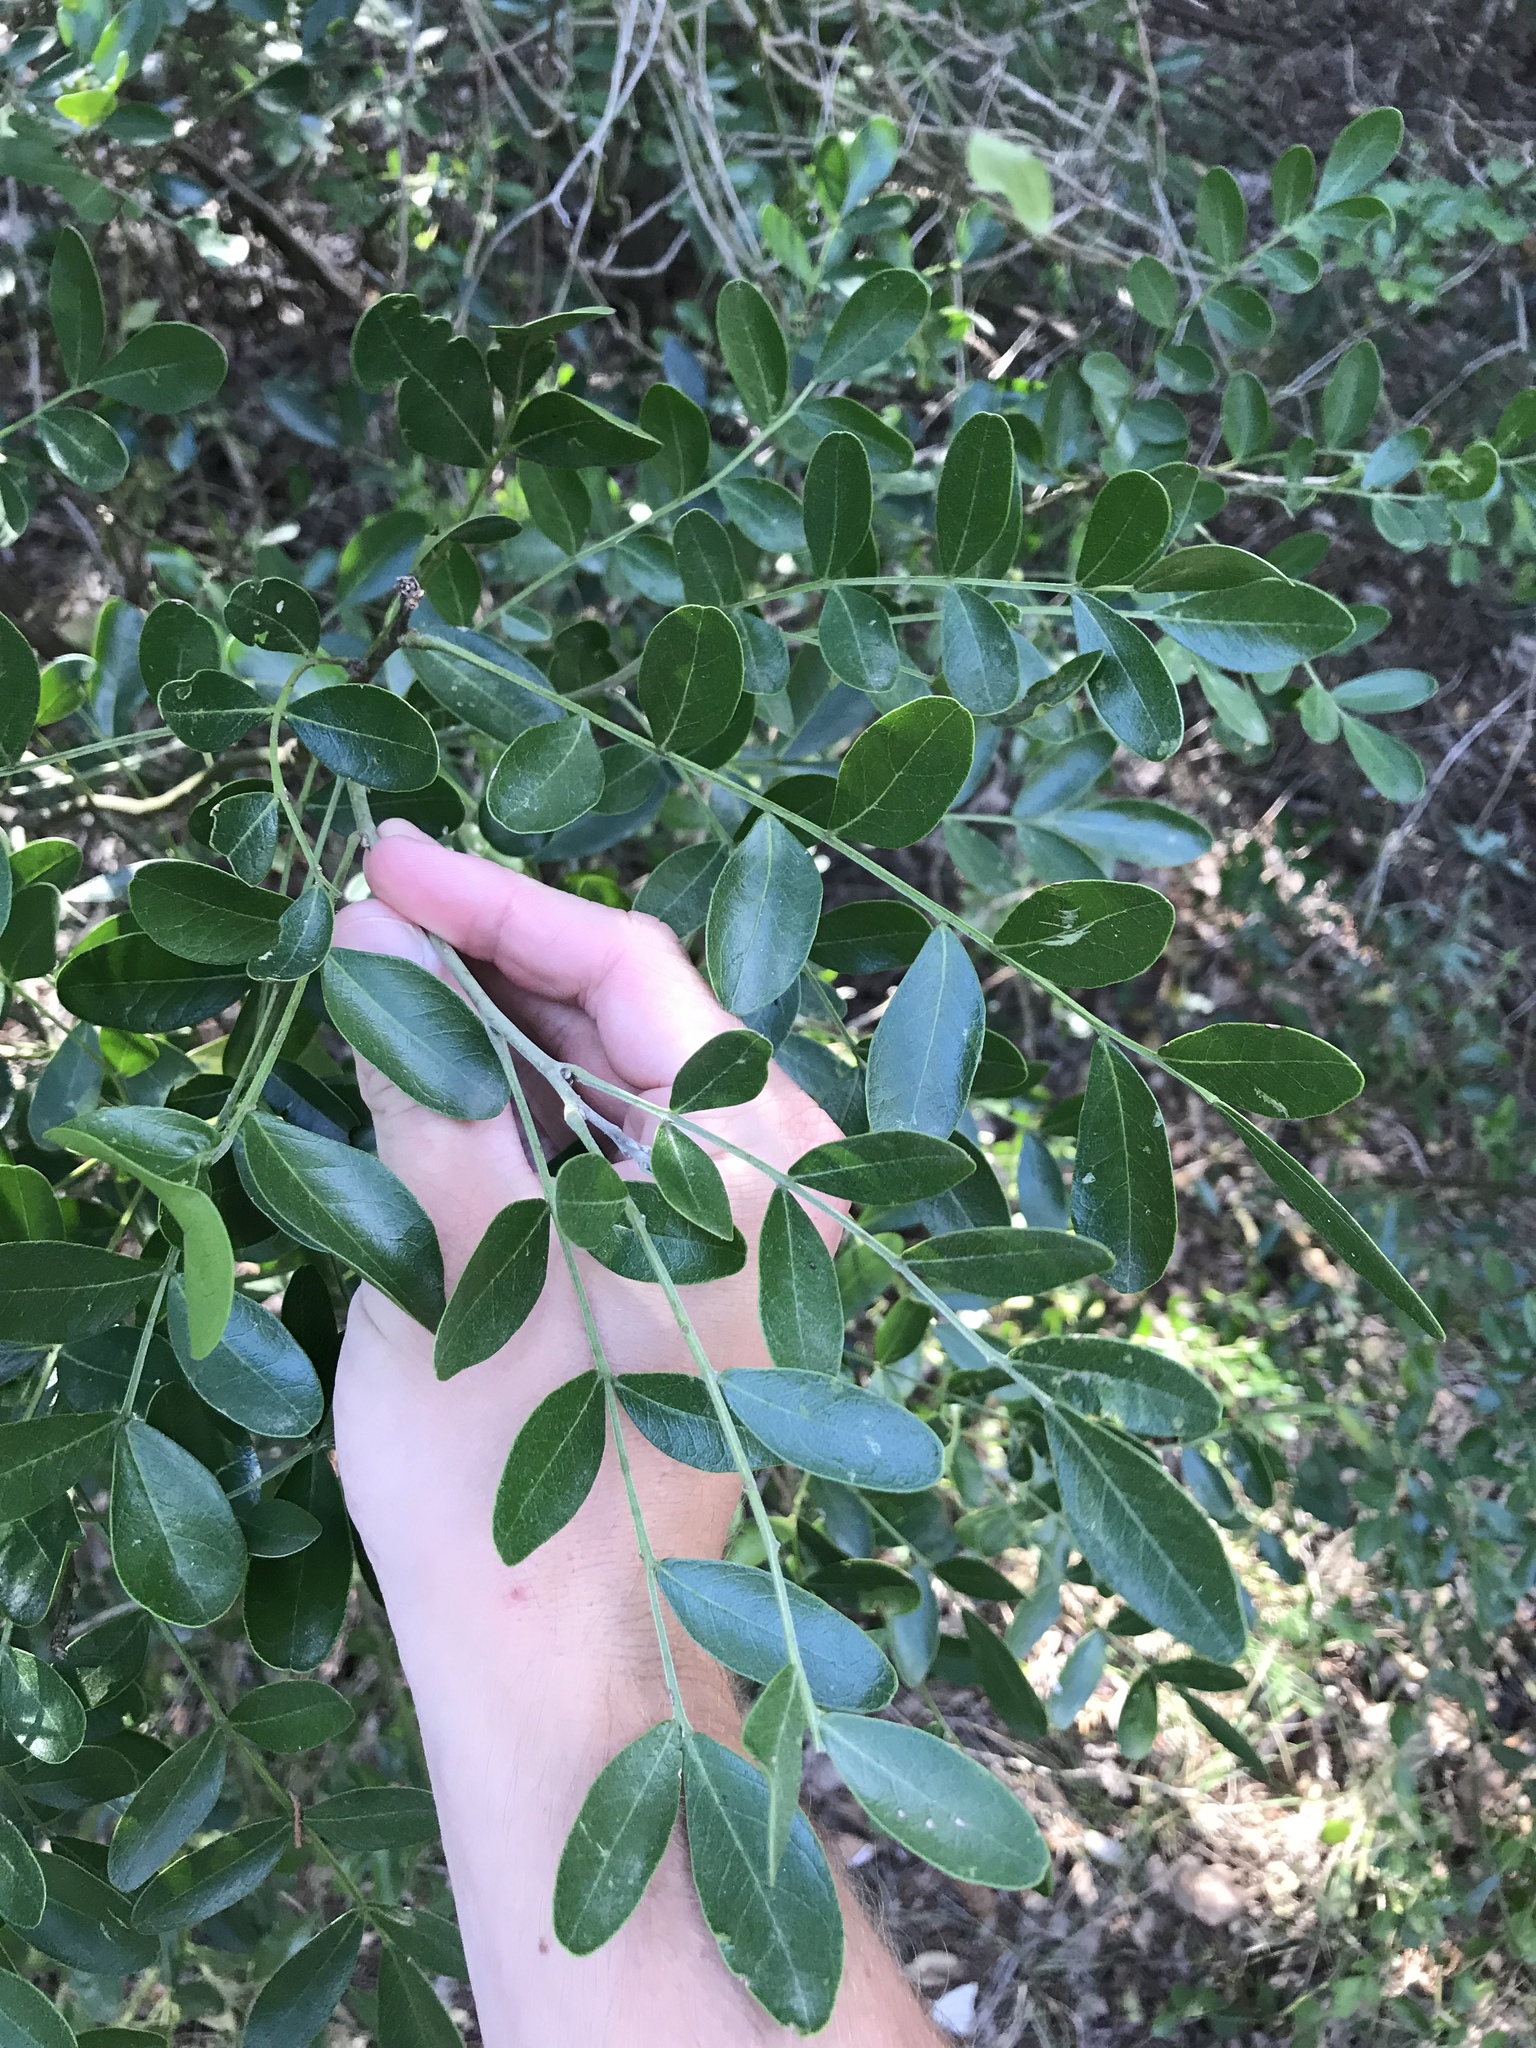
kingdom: Plantae
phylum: Tracheophyta
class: Magnoliopsida
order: Fabales
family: Fabaceae
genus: Dermatophyllum
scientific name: Dermatophyllum secundiflorum
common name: Texas-mountain-laurel
